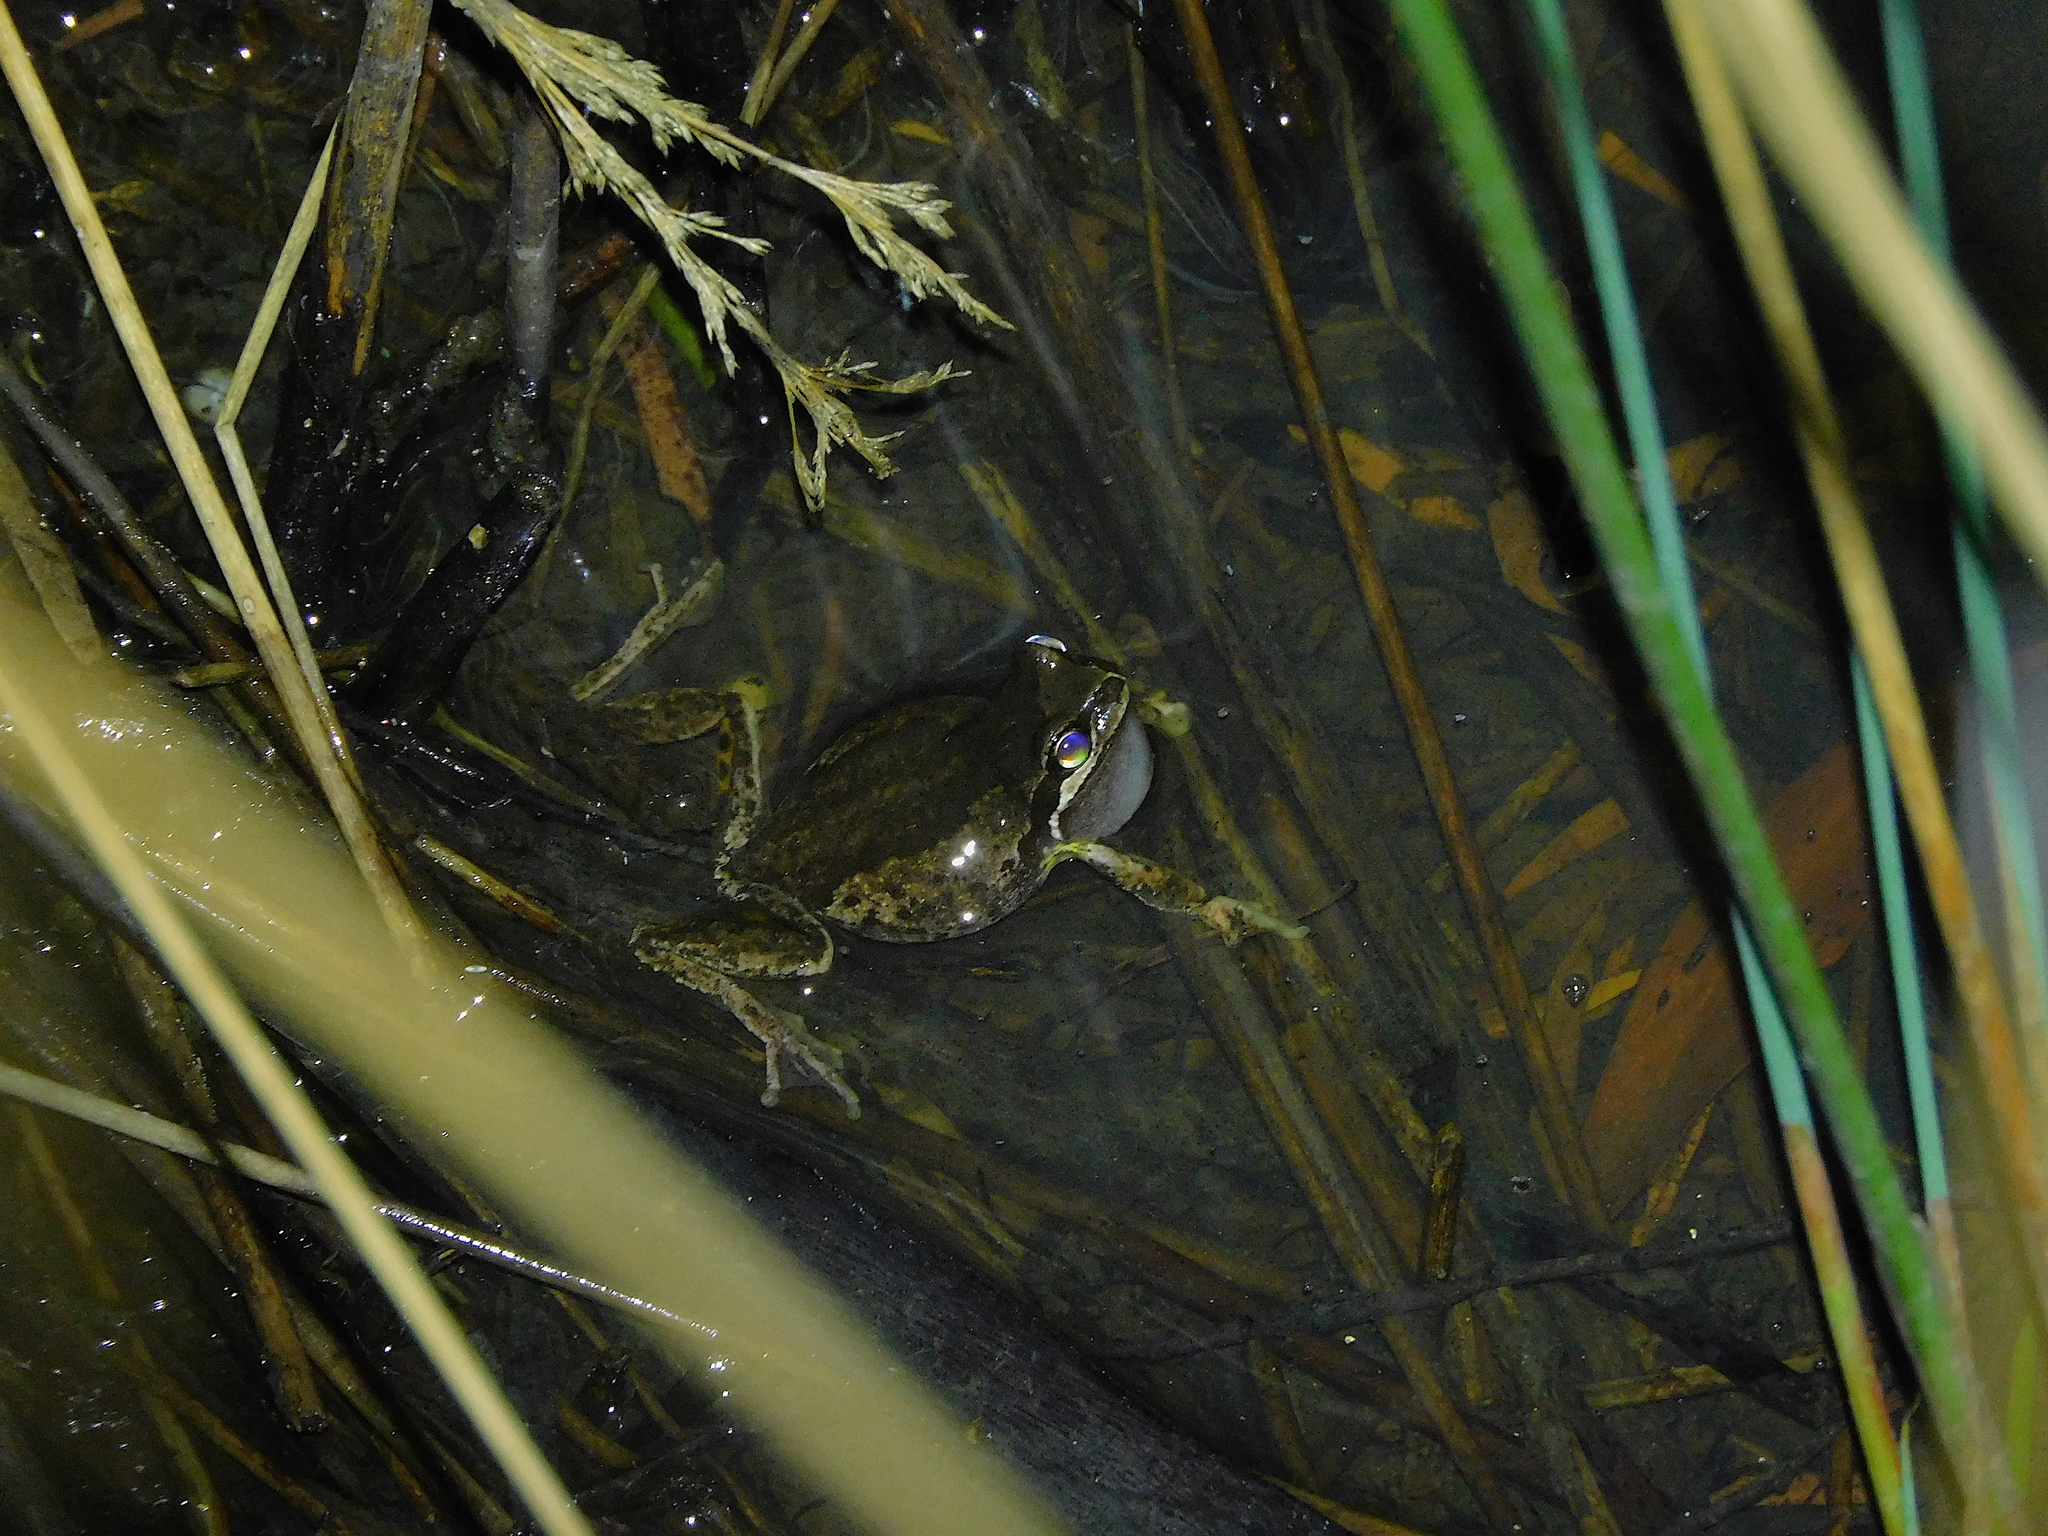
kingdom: Animalia
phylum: Chordata
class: Amphibia
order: Anura
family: Pelodryadidae
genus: Litoria
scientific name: Litoria ewingii
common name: Southern brown tree frog
